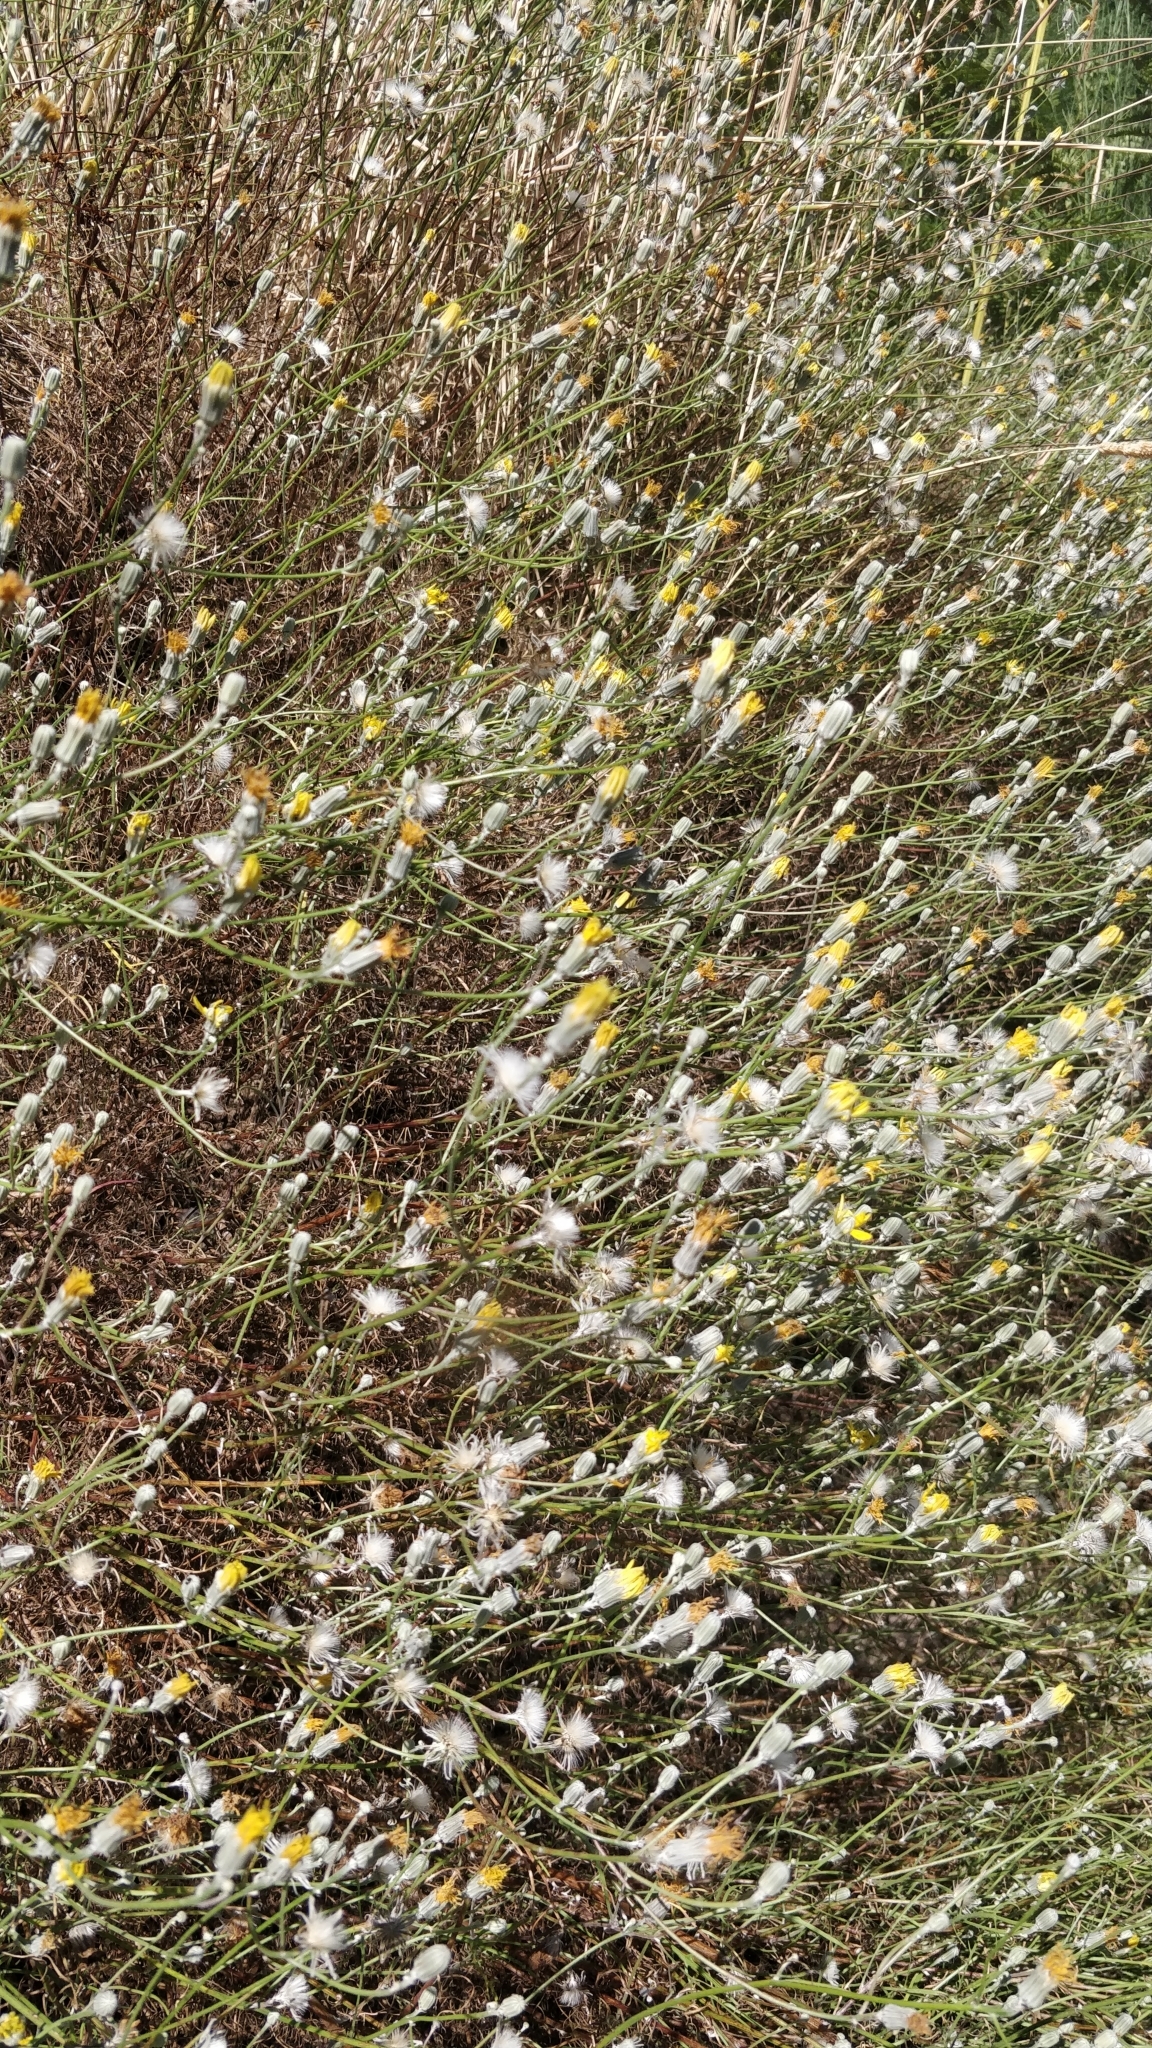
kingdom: Plantae
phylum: Tracheophyta
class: Magnoliopsida
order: Asterales
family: Asteraceae
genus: Tolpis
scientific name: Tolpis succulenta
